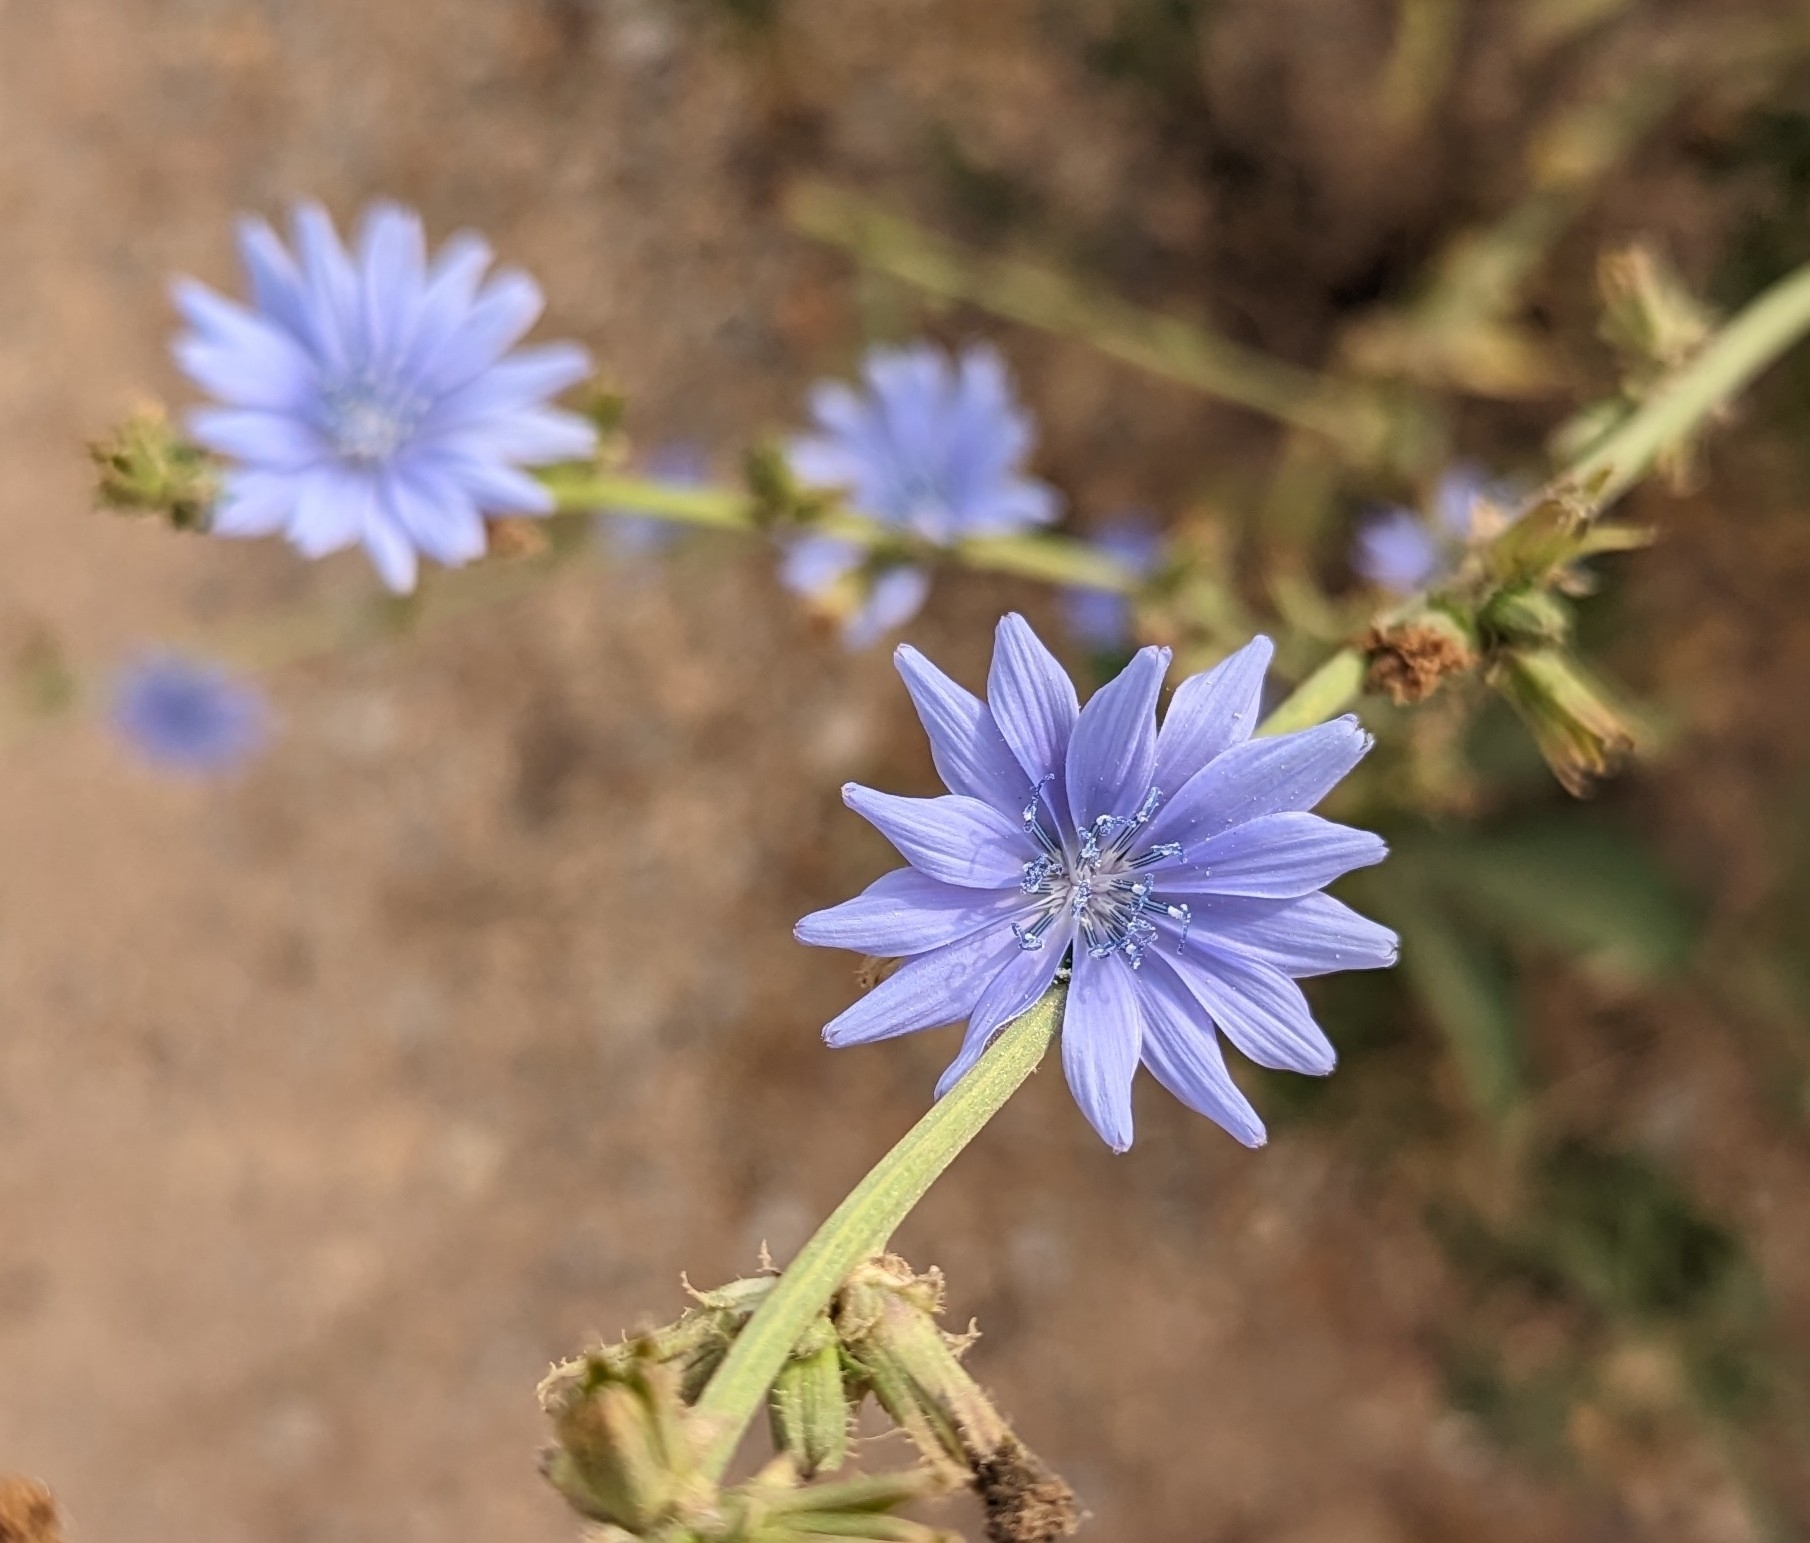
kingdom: Plantae
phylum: Tracheophyta
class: Magnoliopsida
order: Asterales
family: Asteraceae
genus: Cichorium
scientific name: Cichorium intybus
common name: Chicory
